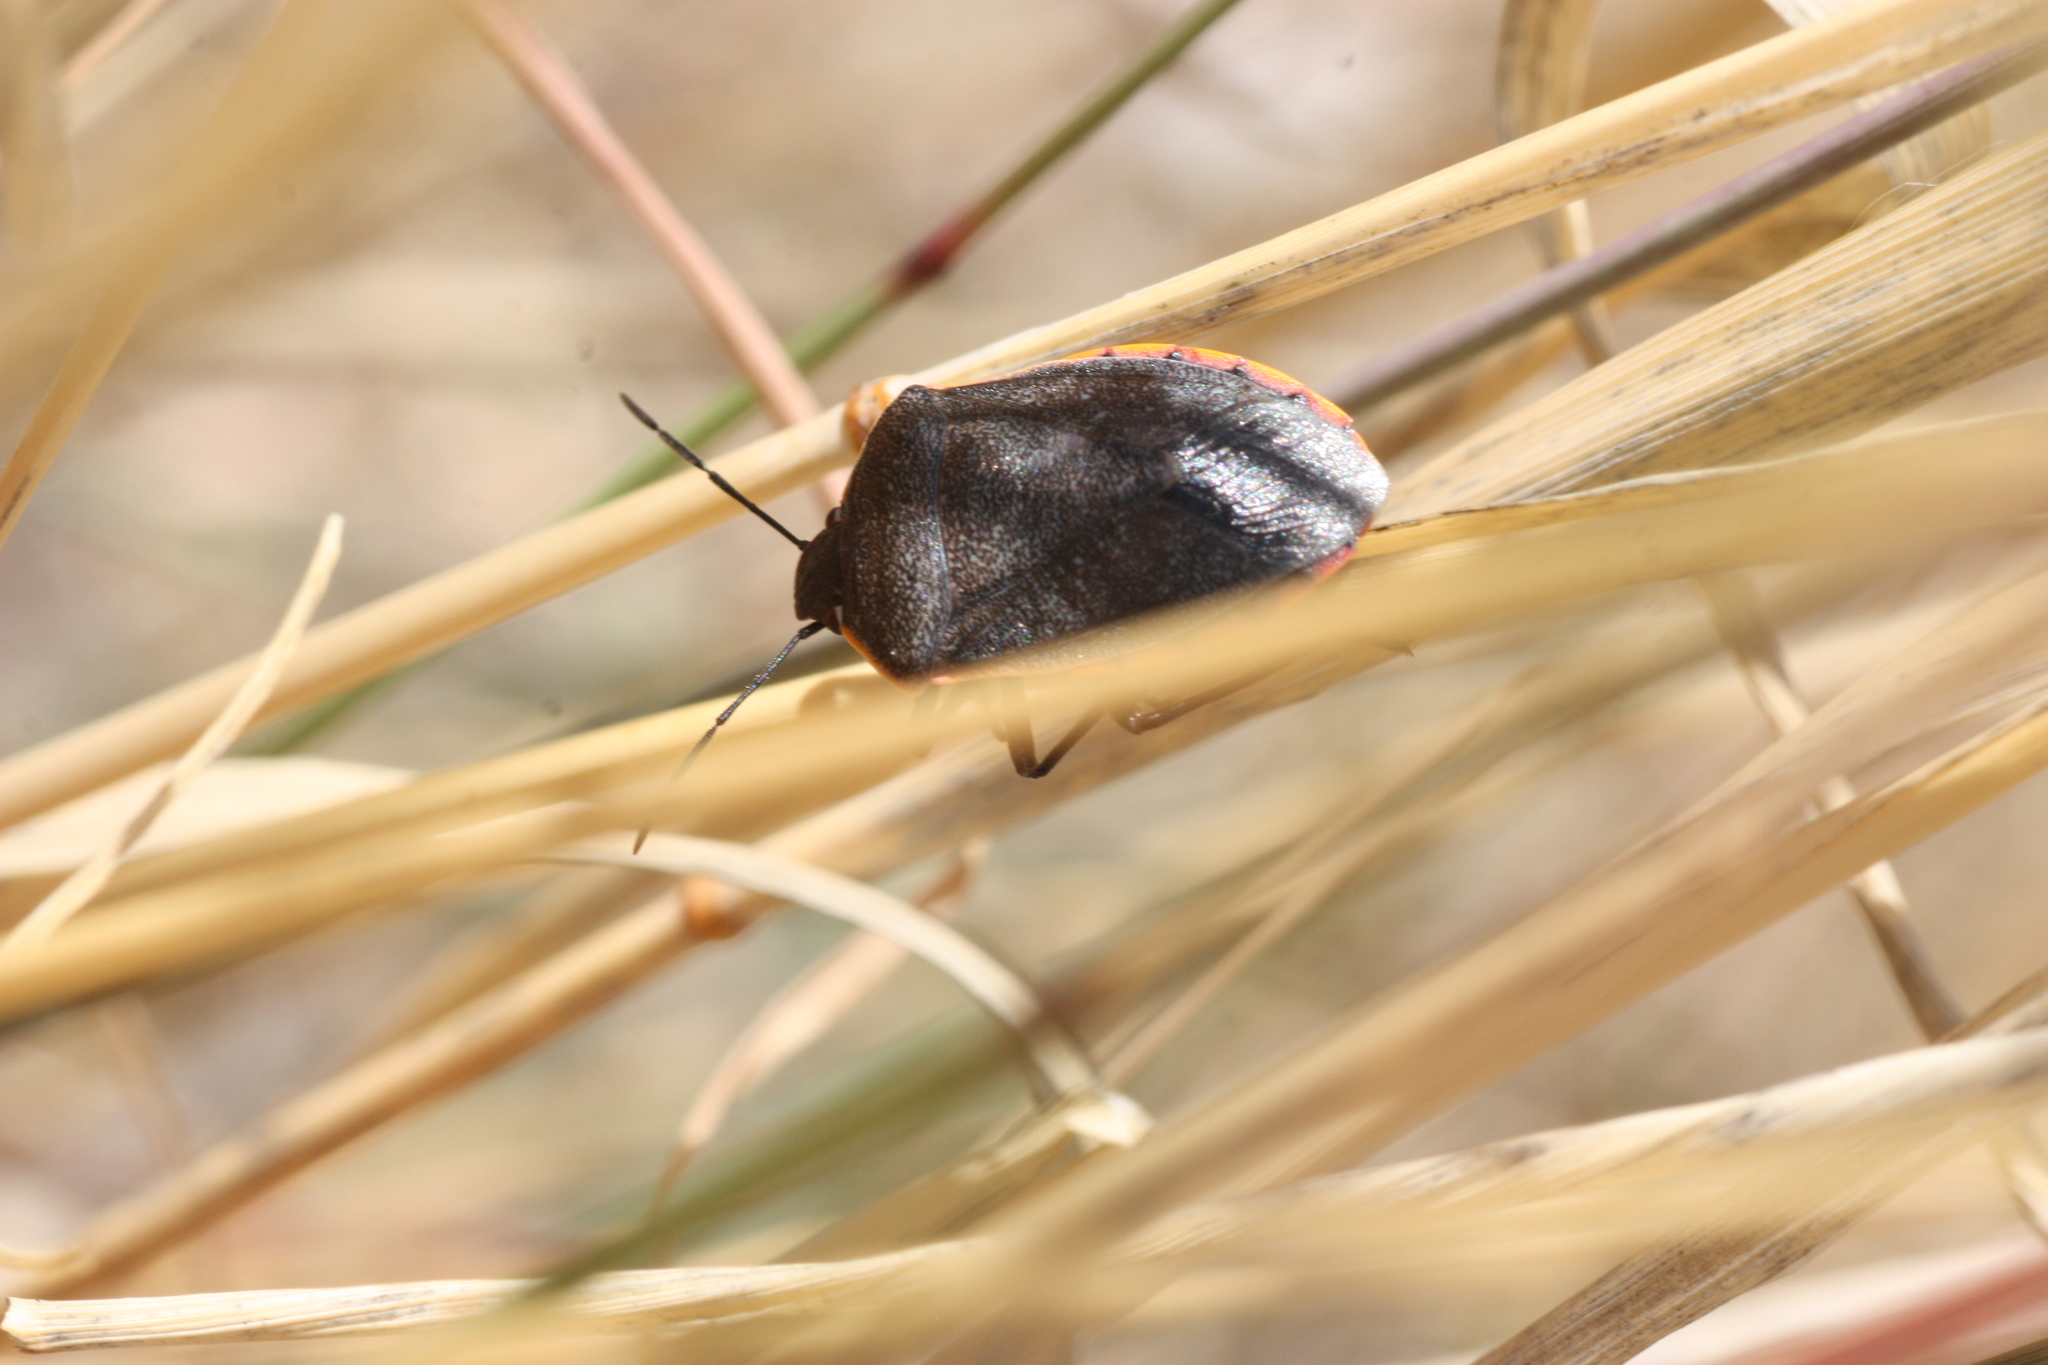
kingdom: Animalia
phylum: Arthropoda
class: Insecta
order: Hemiptera
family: Pentatomidae
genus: Chlorochroa
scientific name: Chlorochroa ligata
